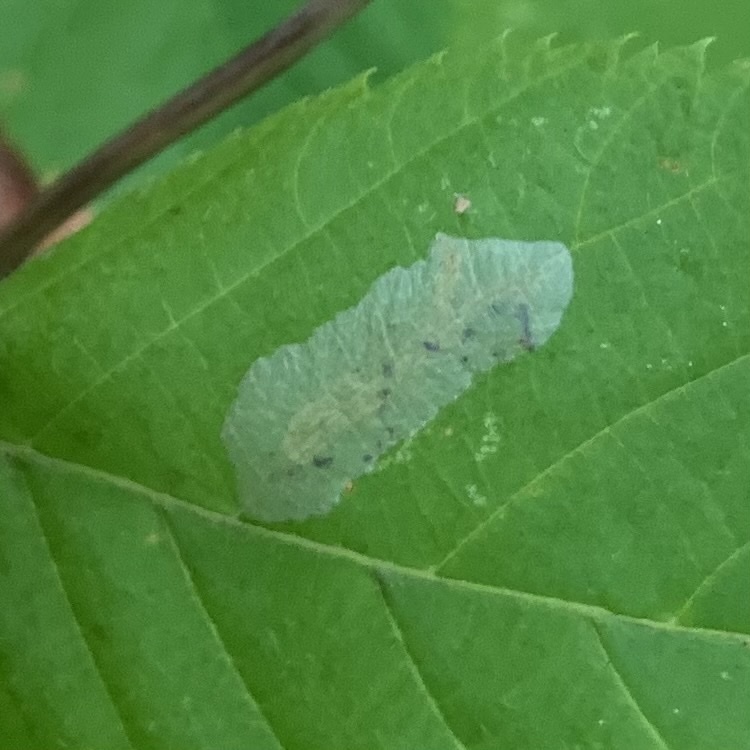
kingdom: Animalia
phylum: Arthropoda
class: Insecta
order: Lepidoptera
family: Gracillariidae
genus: Phyllonorycter
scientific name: Phyllonorycter tritaenianella
